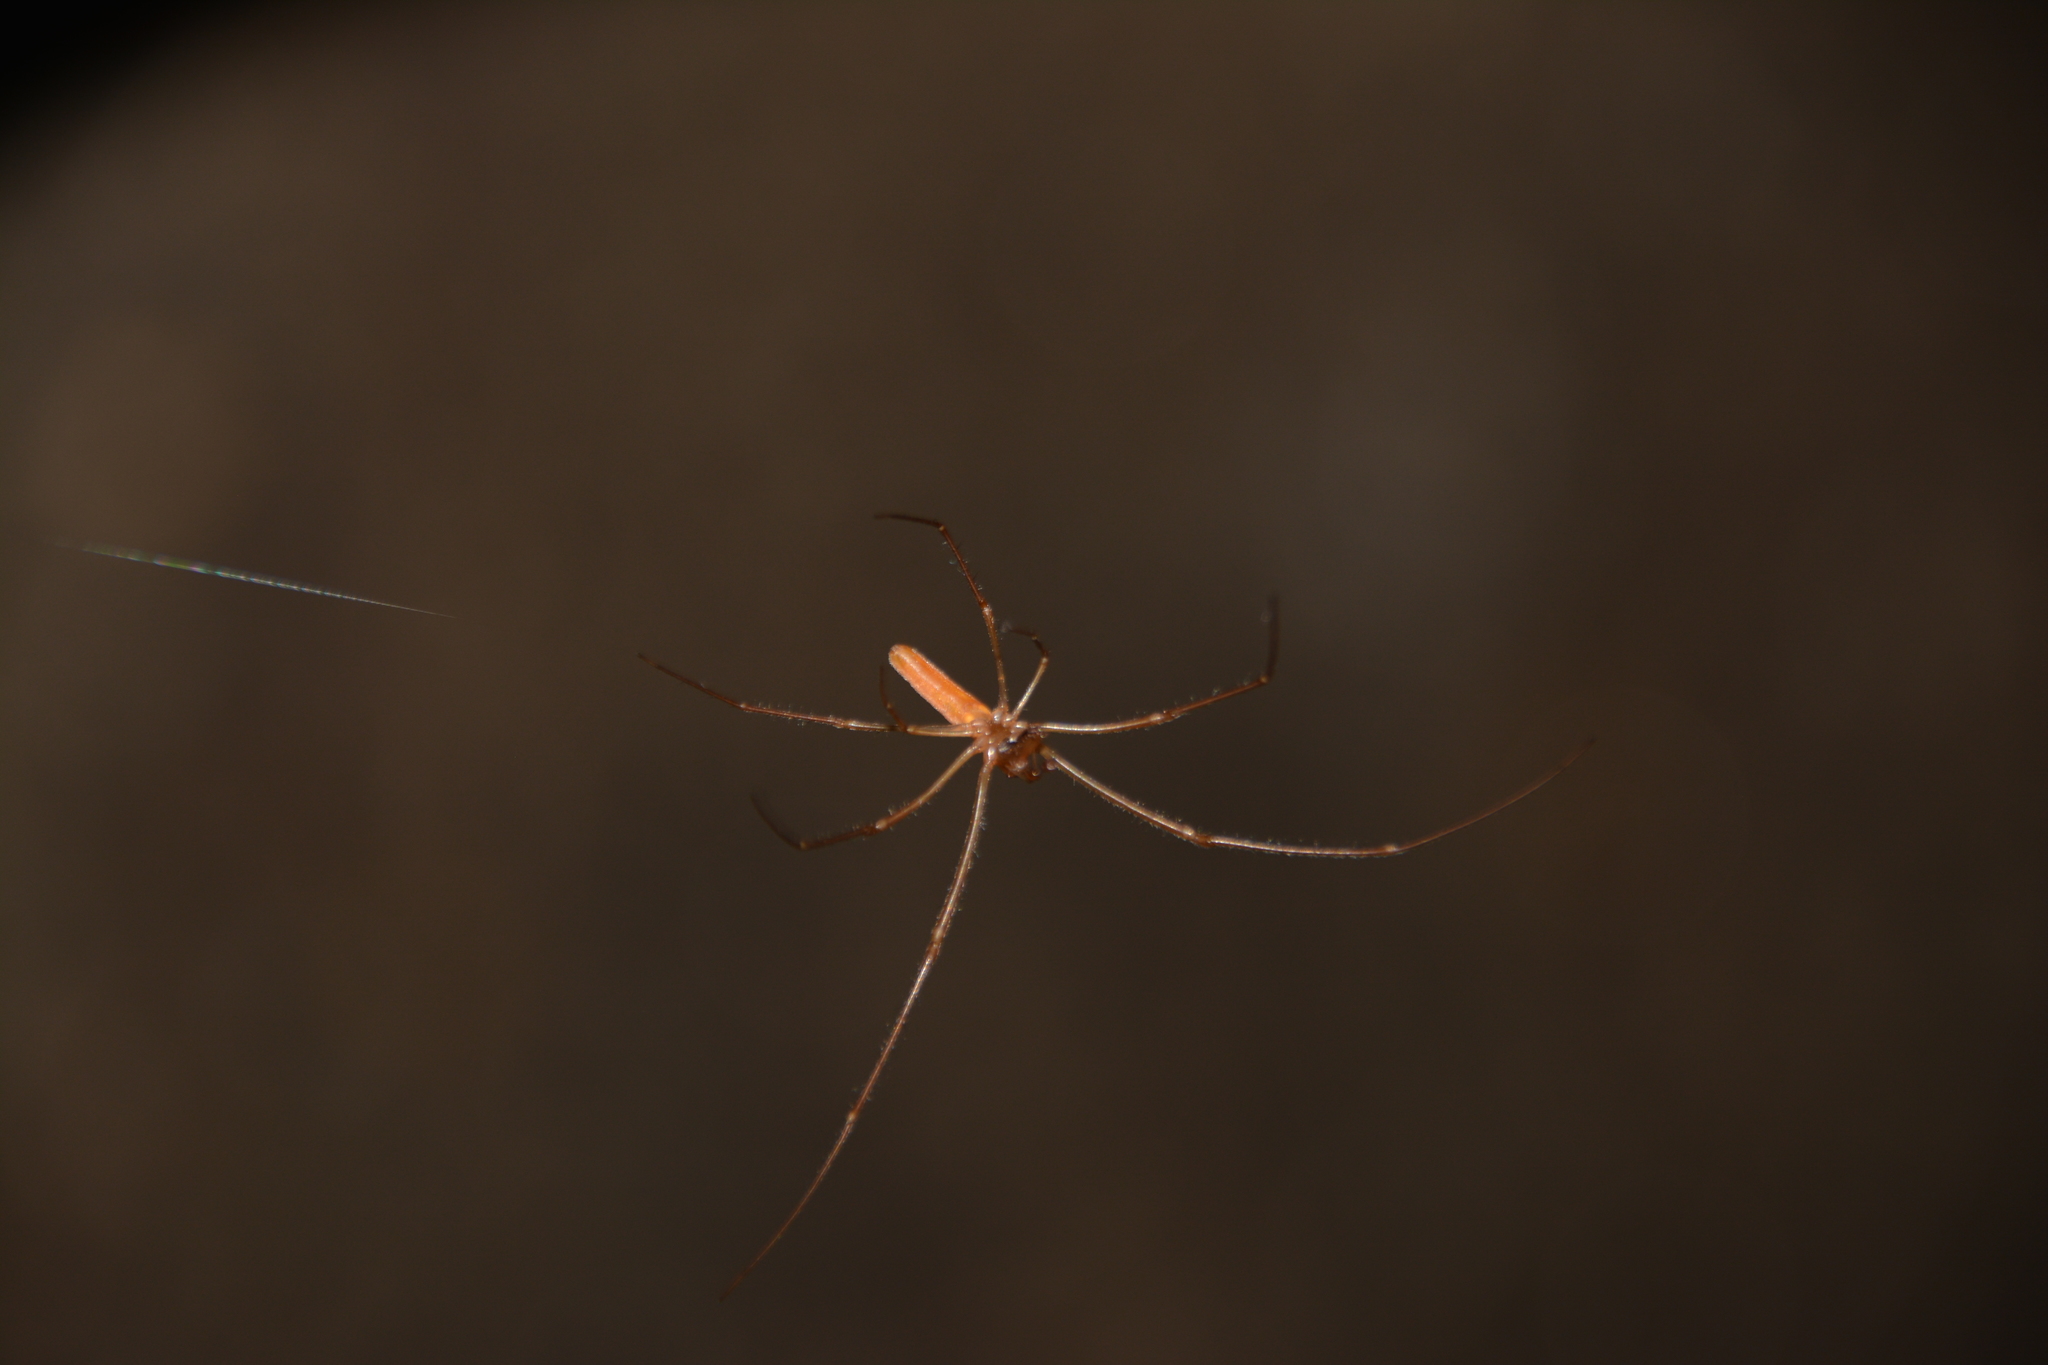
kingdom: Animalia
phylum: Arthropoda
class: Arachnida
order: Araneae
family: Tetragnathidae
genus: Tetragnatha
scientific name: Tetragnatha
